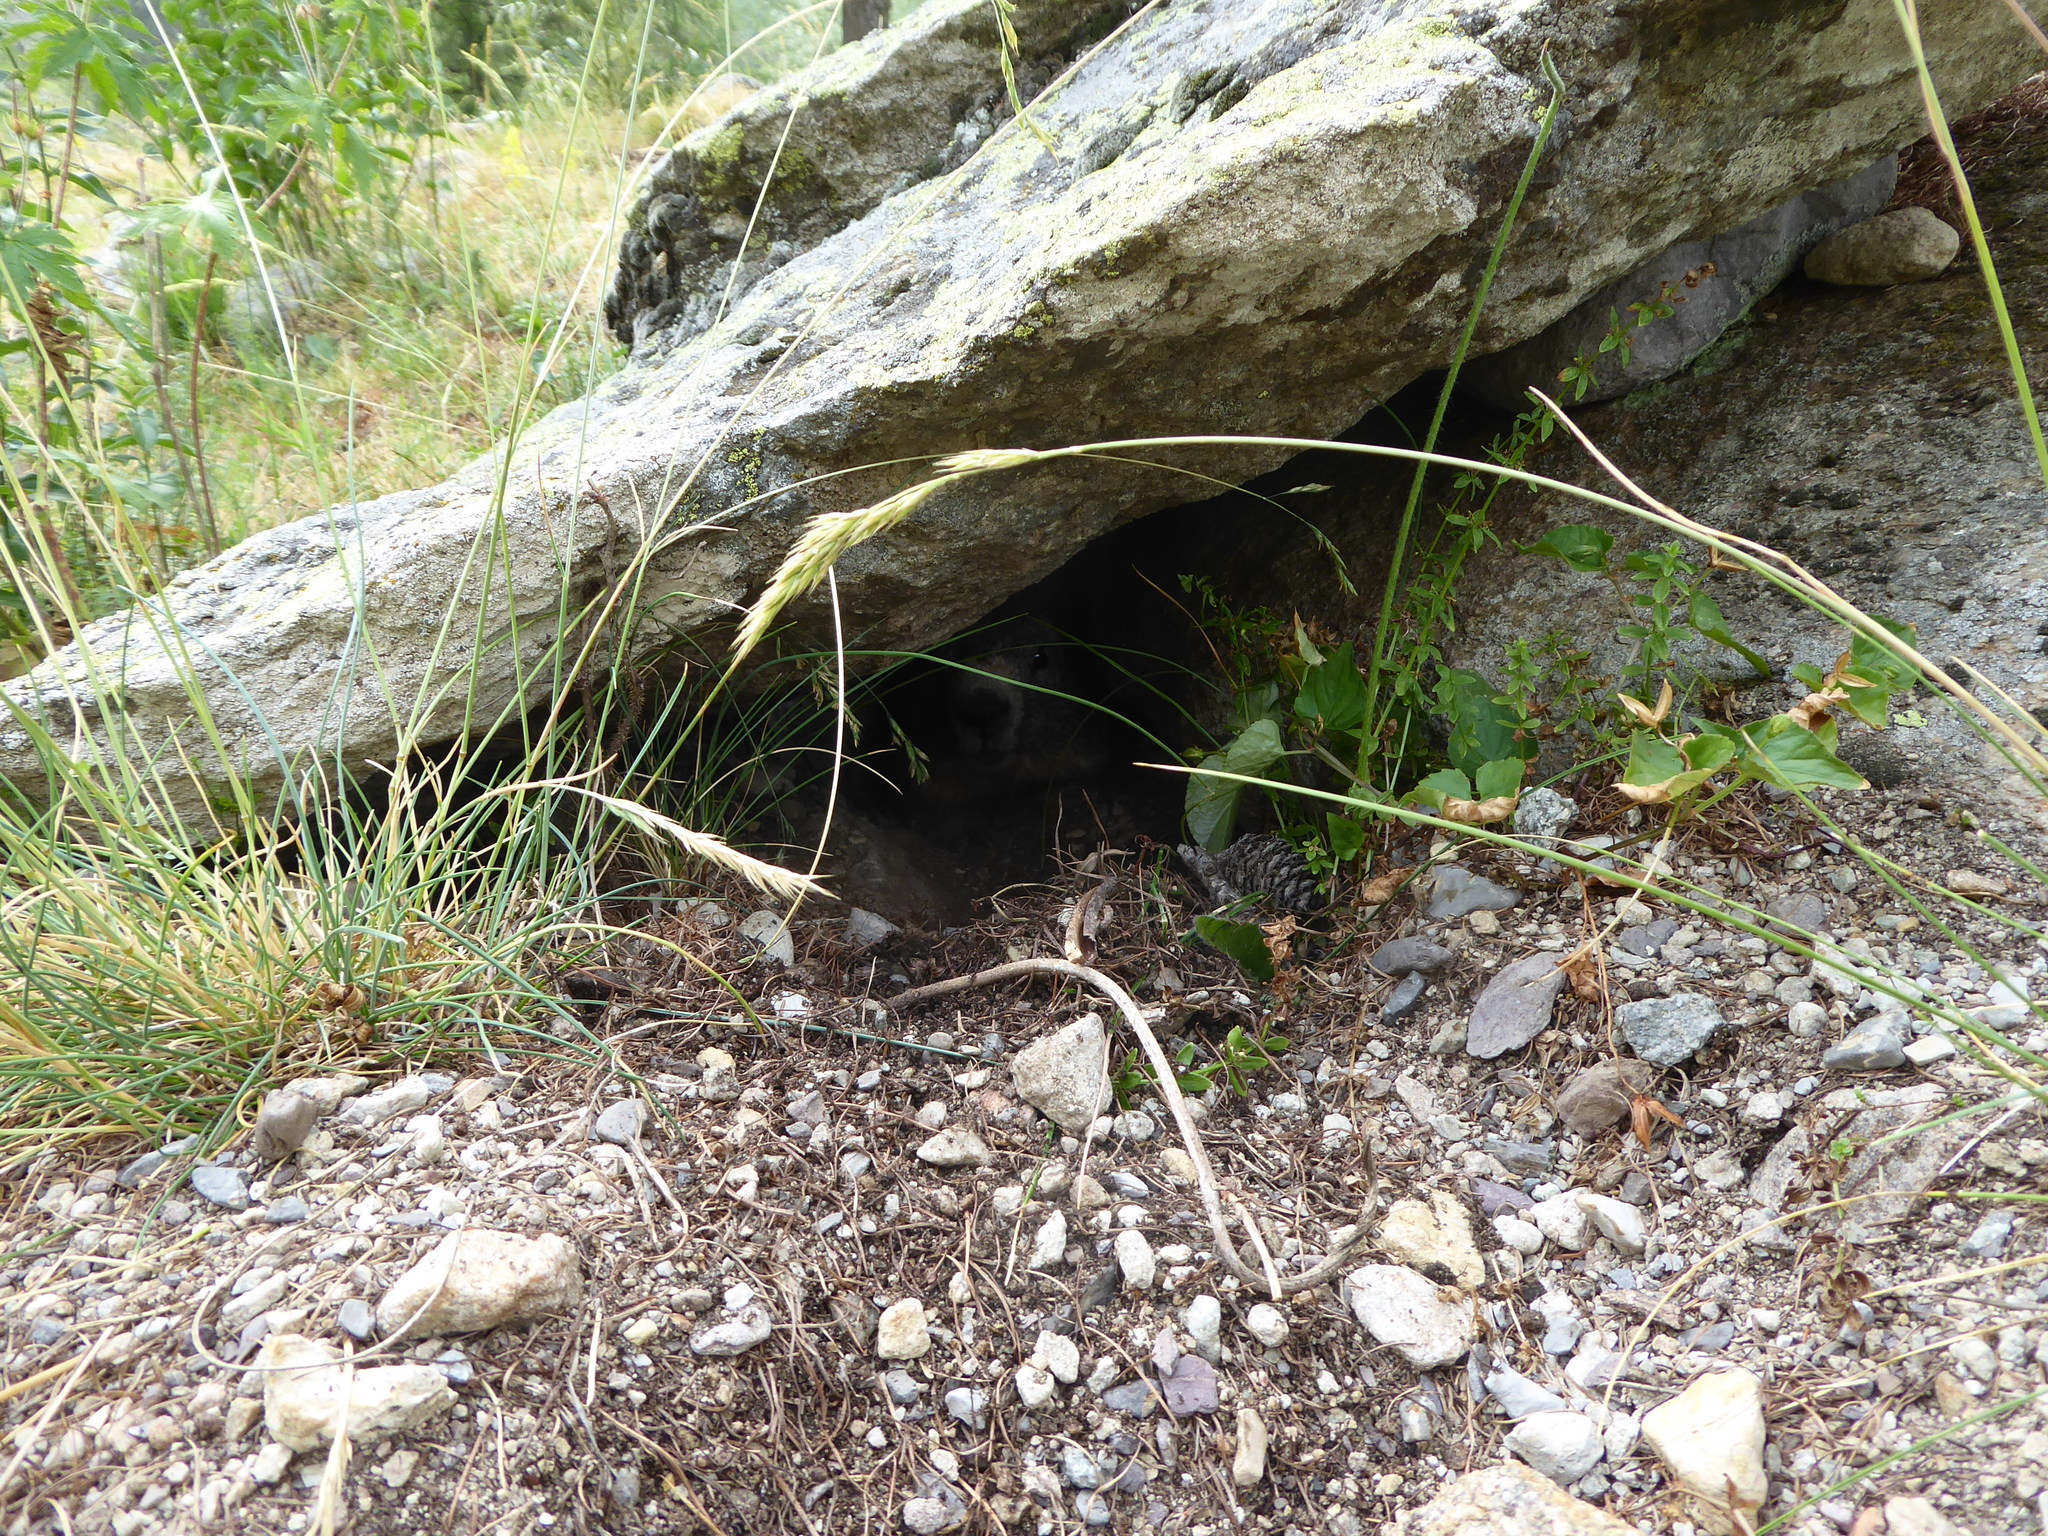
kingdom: Animalia
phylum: Chordata
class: Mammalia
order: Rodentia
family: Sciuridae
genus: Marmota
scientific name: Marmota marmota
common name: Alpine marmot
